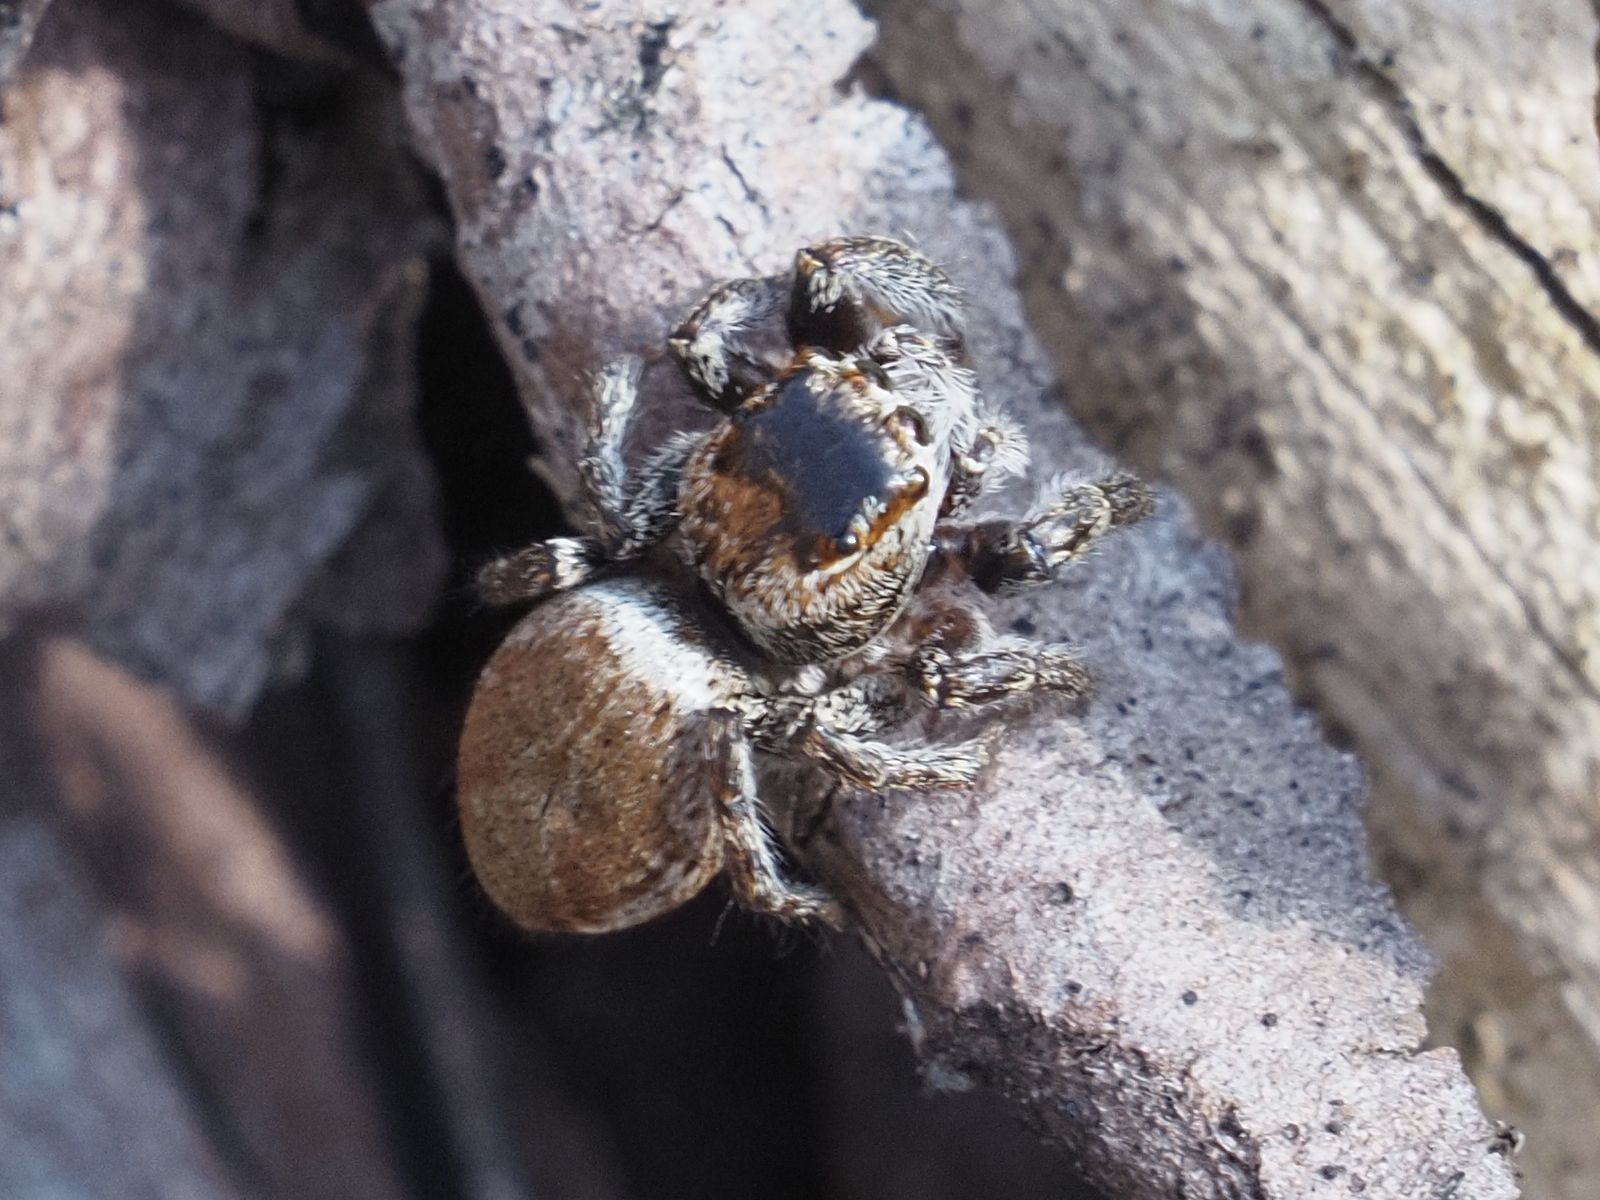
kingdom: Animalia
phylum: Arthropoda
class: Arachnida
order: Araneae
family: Salticidae
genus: Carrhotus
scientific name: Carrhotus xanthogramma
